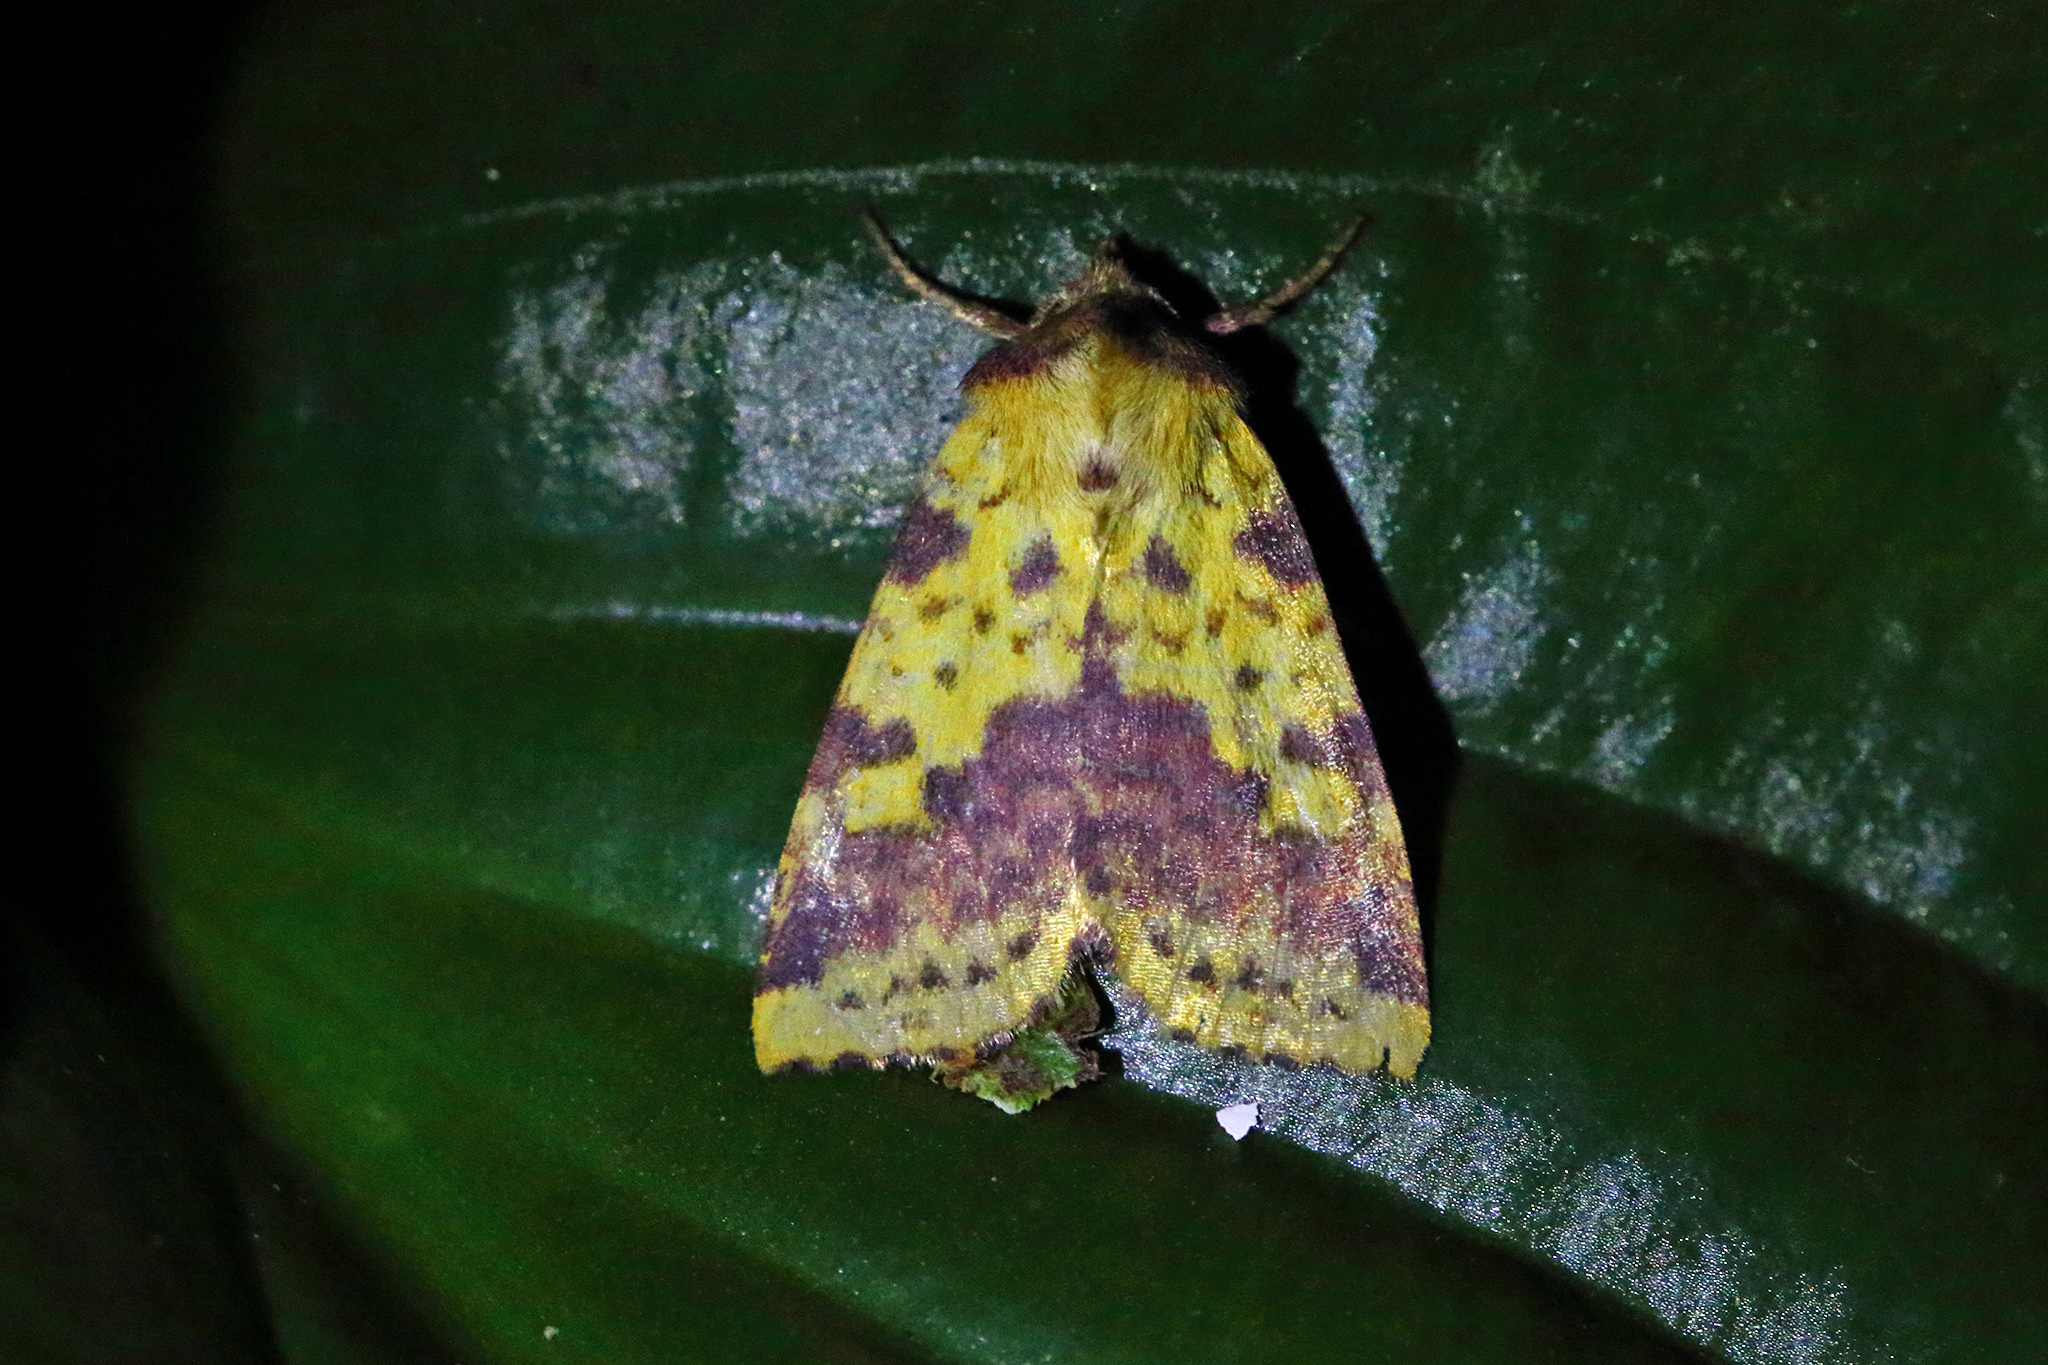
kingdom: Animalia
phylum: Arthropoda
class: Insecta
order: Lepidoptera
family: Noctuidae
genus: Xanthia
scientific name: Xanthia togata
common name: Pink-barred sallow
